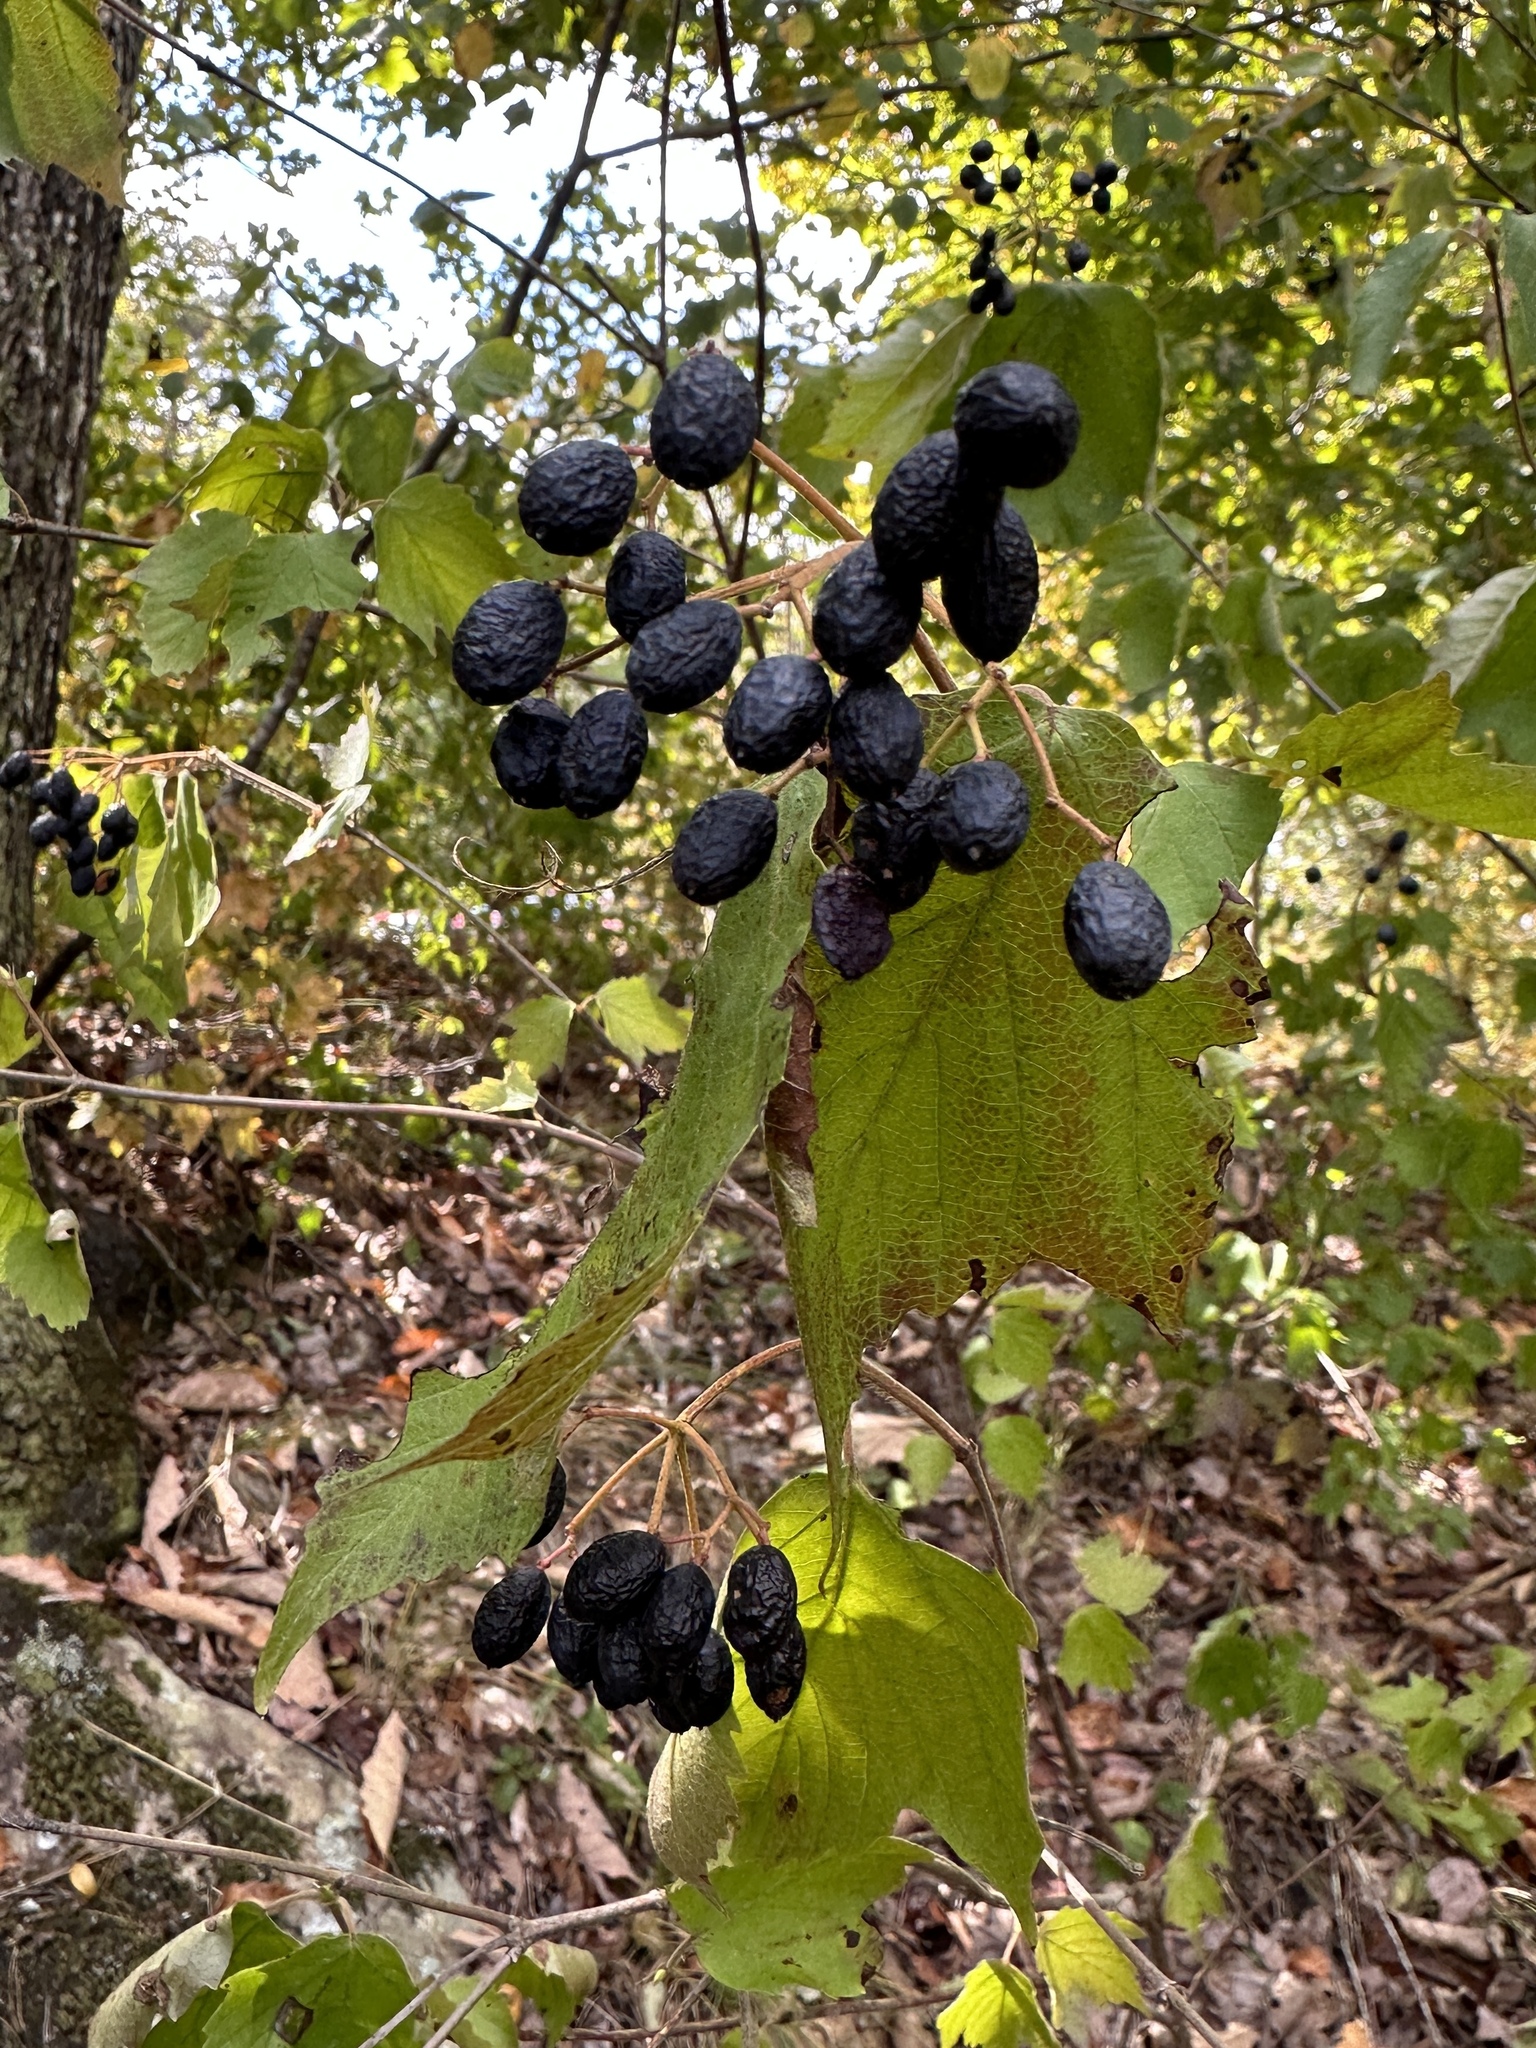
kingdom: Plantae
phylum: Tracheophyta
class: Magnoliopsida
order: Dipsacales
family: Viburnaceae
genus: Viburnum
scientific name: Viburnum acerifolium
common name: Dockmackie
